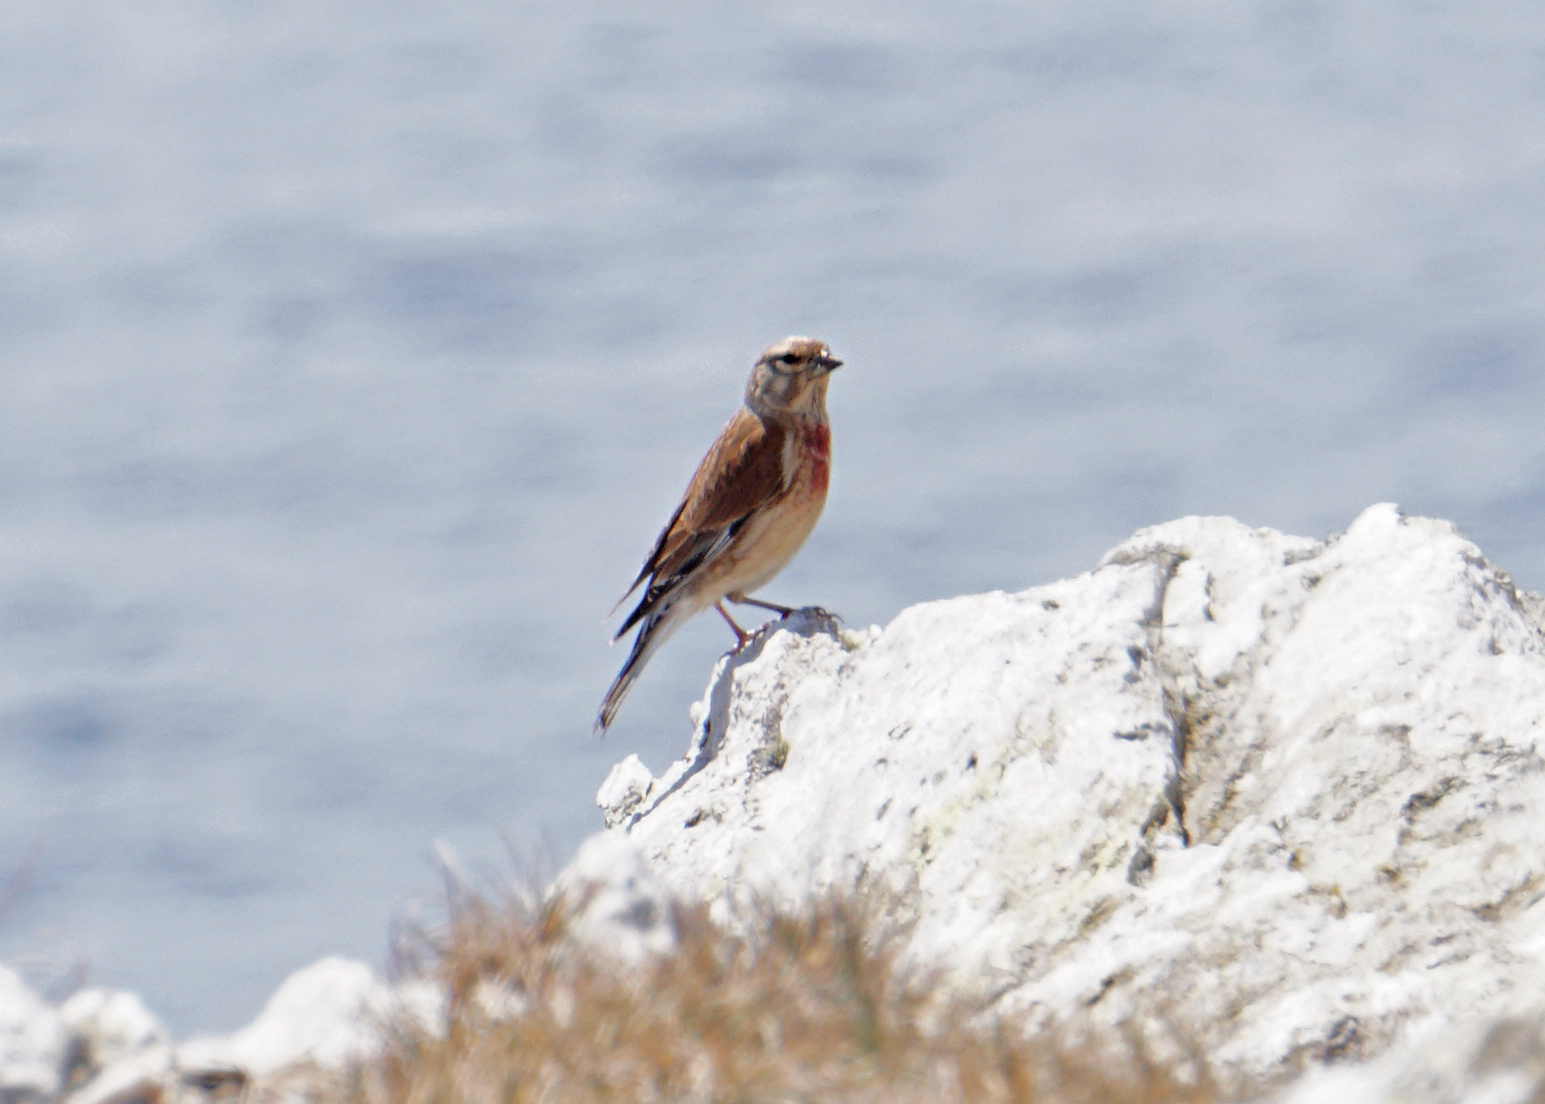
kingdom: Animalia
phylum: Chordata
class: Aves
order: Passeriformes
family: Fringillidae
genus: Linaria
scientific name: Linaria cannabina
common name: Common linnet
